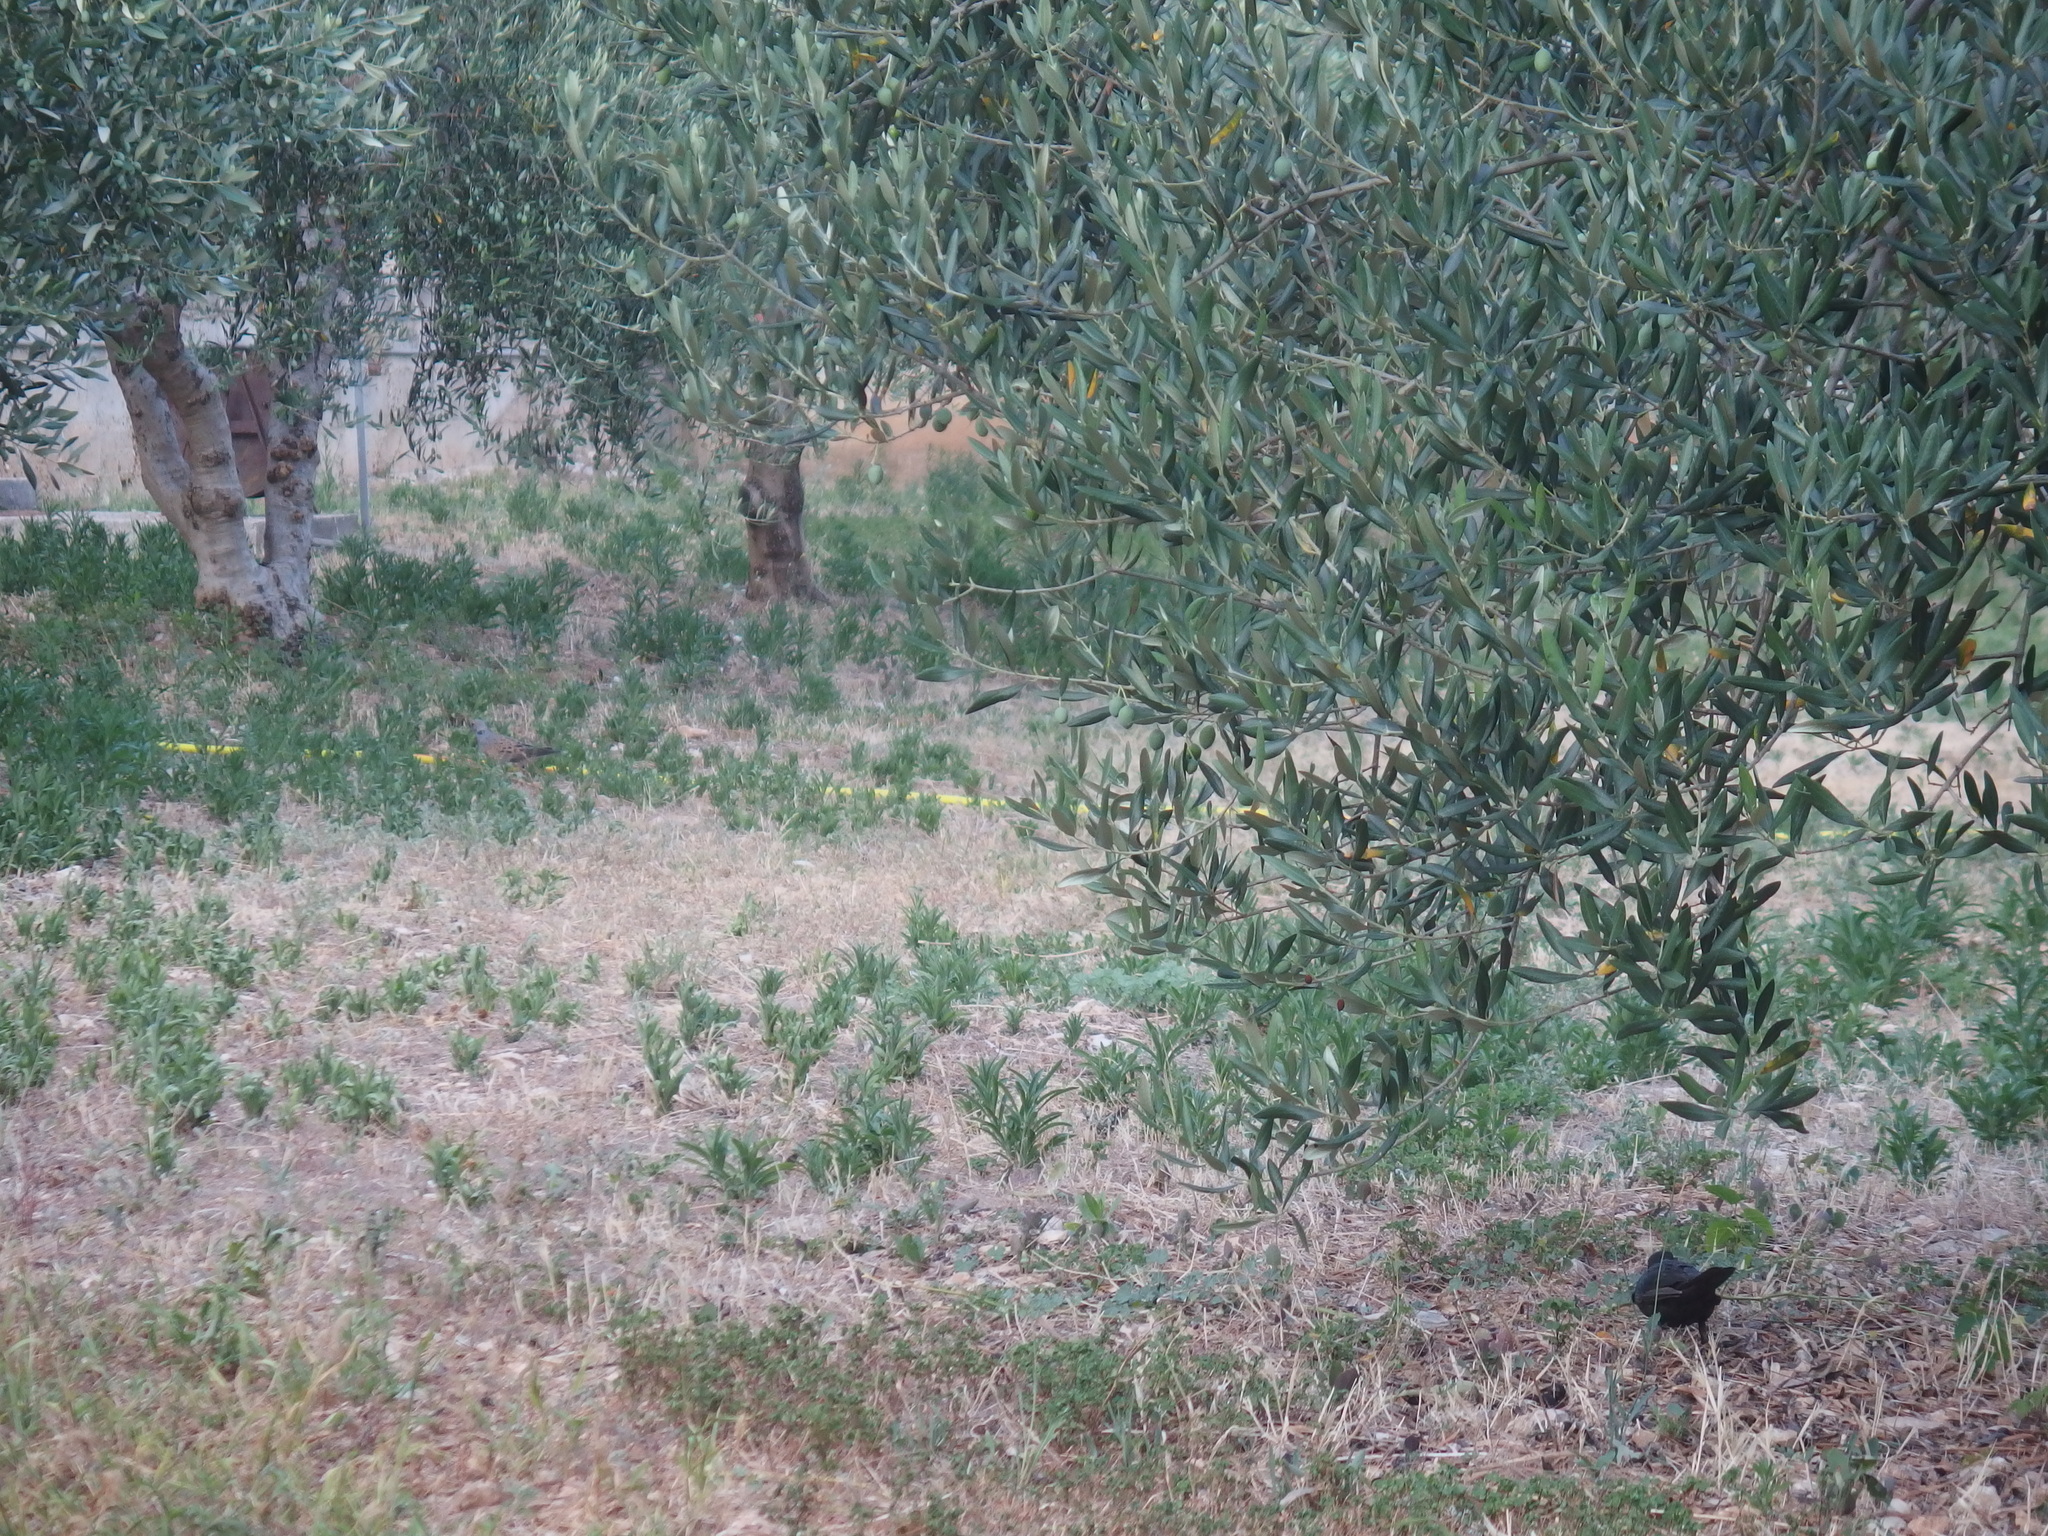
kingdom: Animalia
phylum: Chordata
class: Aves
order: Columbiformes
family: Columbidae
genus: Streptopelia
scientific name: Streptopelia turtur
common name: European turtle dove
